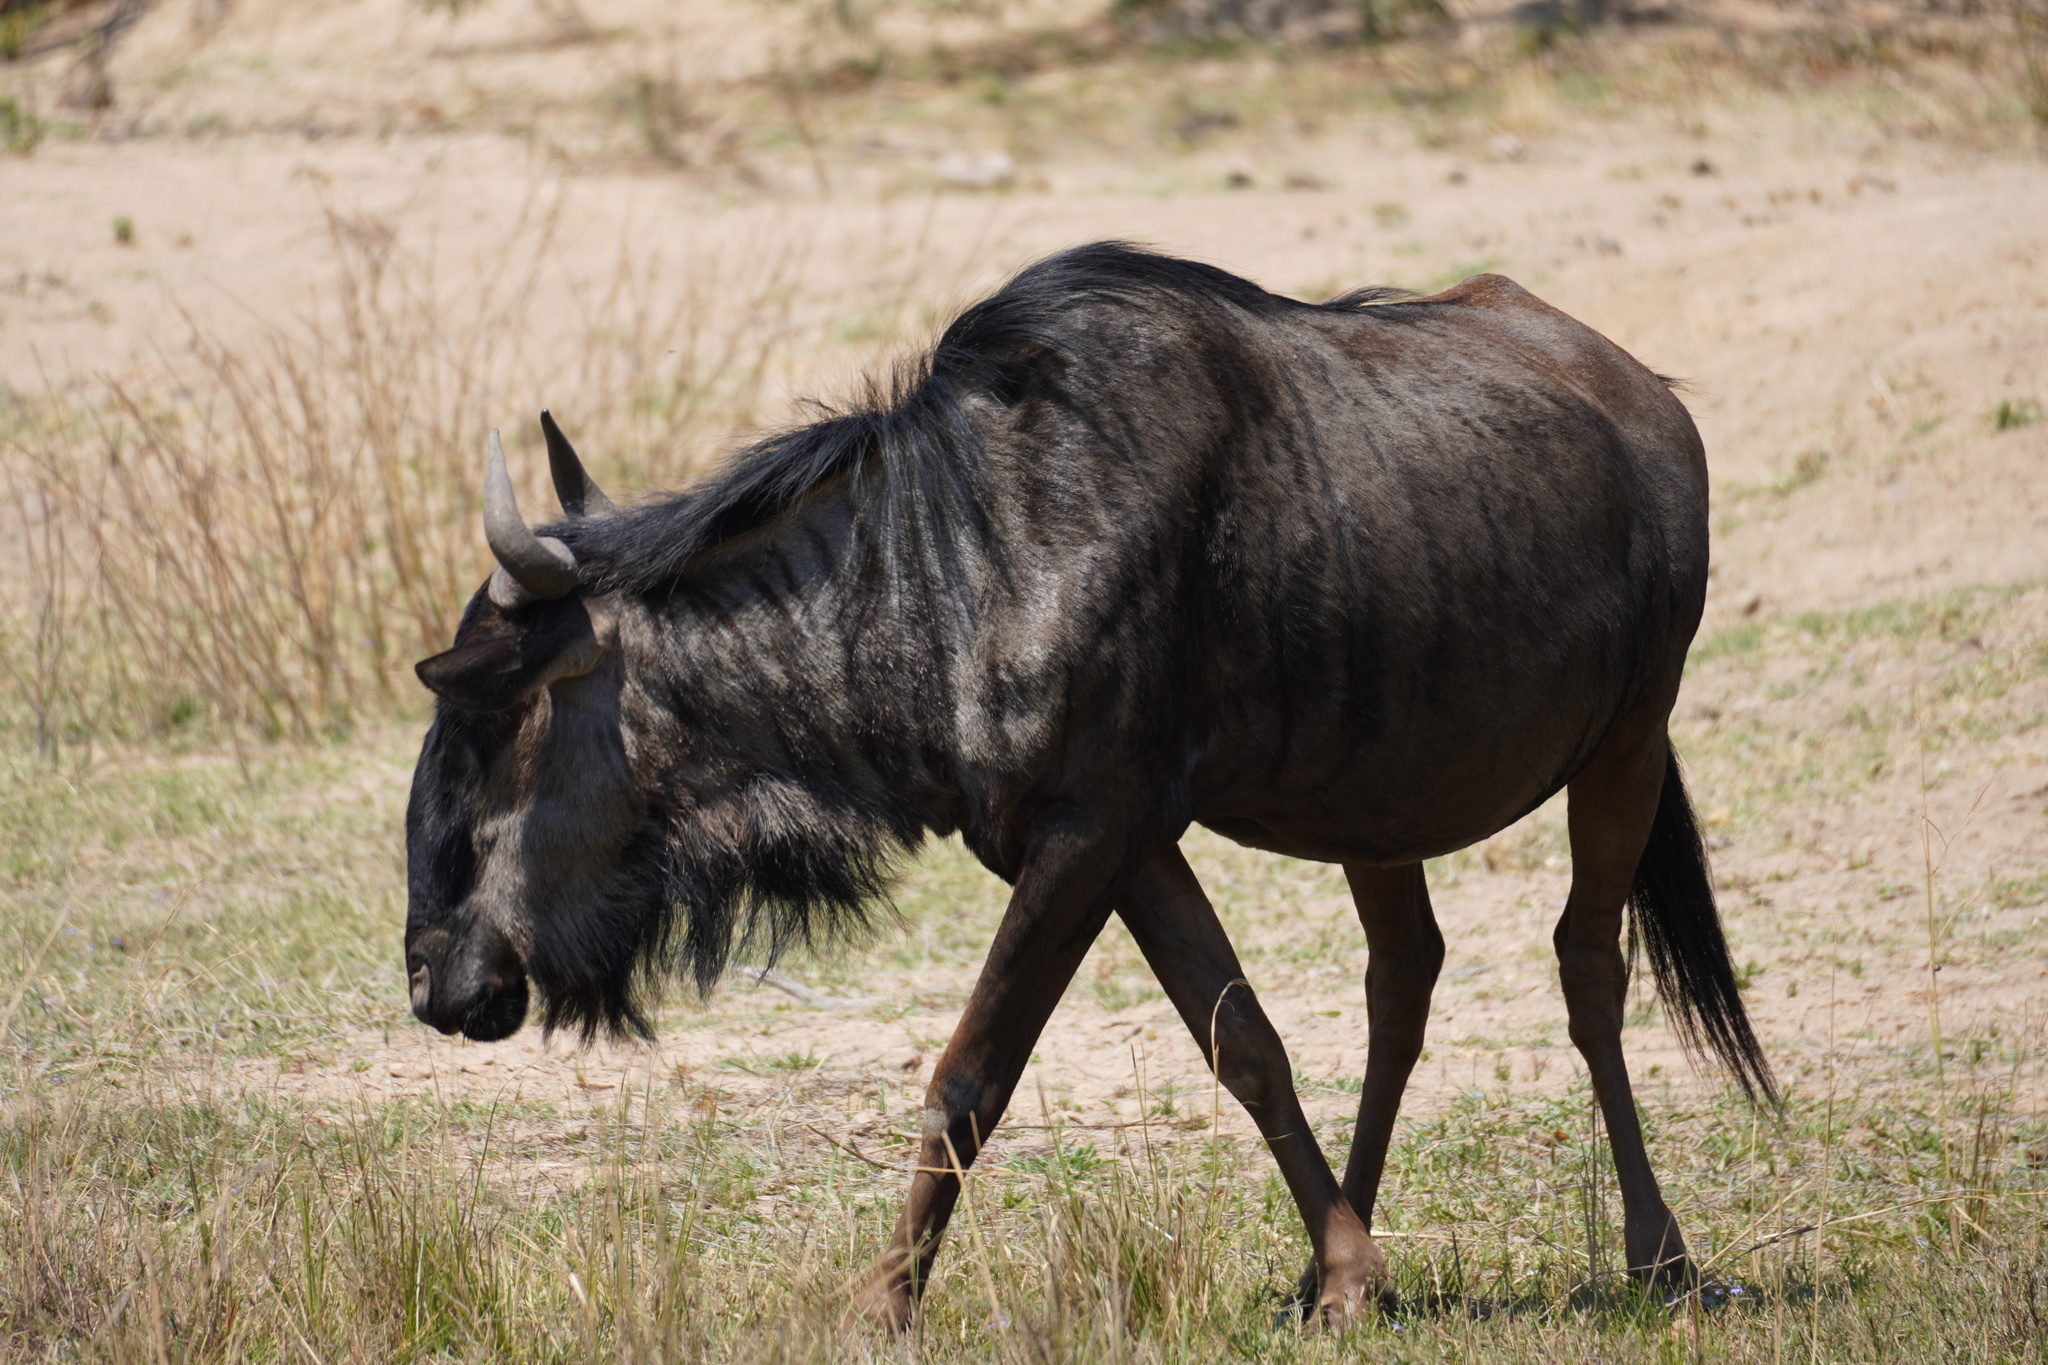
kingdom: Animalia
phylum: Chordata
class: Mammalia
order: Artiodactyla
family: Bovidae
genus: Connochaetes
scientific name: Connochaetes taurinus
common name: Blue wildebeest
